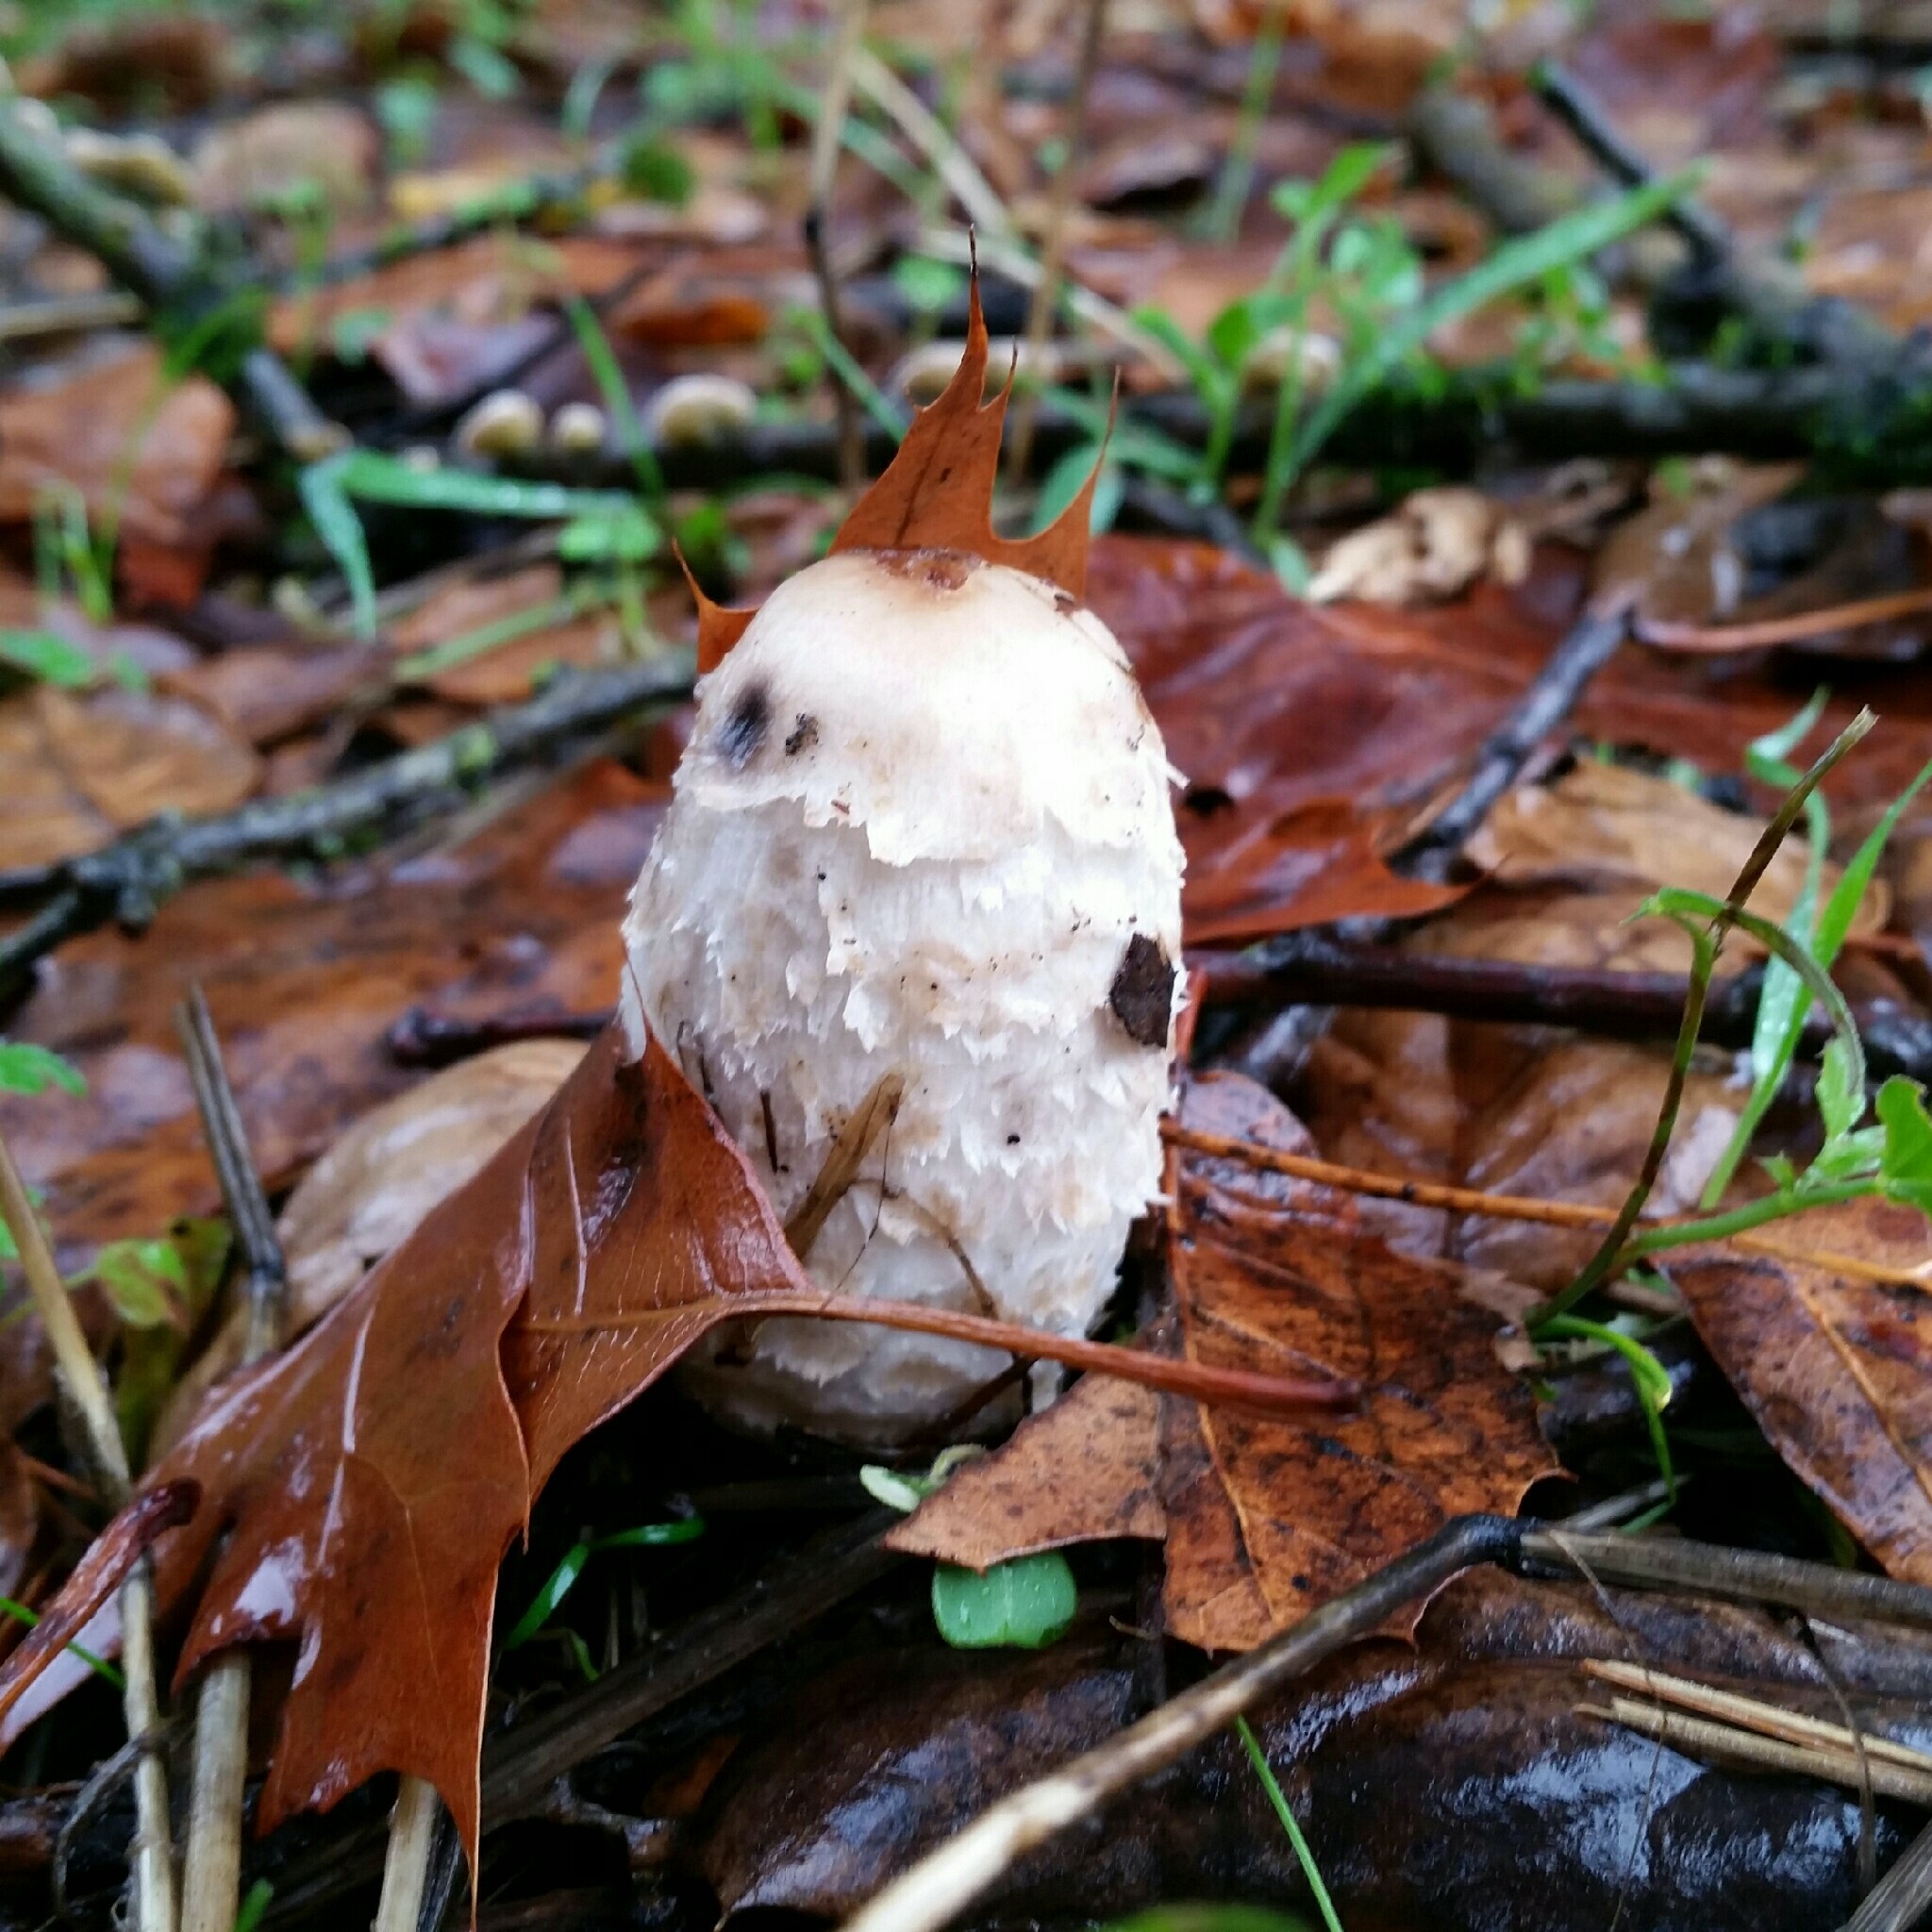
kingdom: Fungi
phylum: Basidiomycota
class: Agaricomycetes
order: Agaricales
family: Agaricaceae
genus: Coprinus
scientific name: Coprinus comatus
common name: Lawyer's wig
